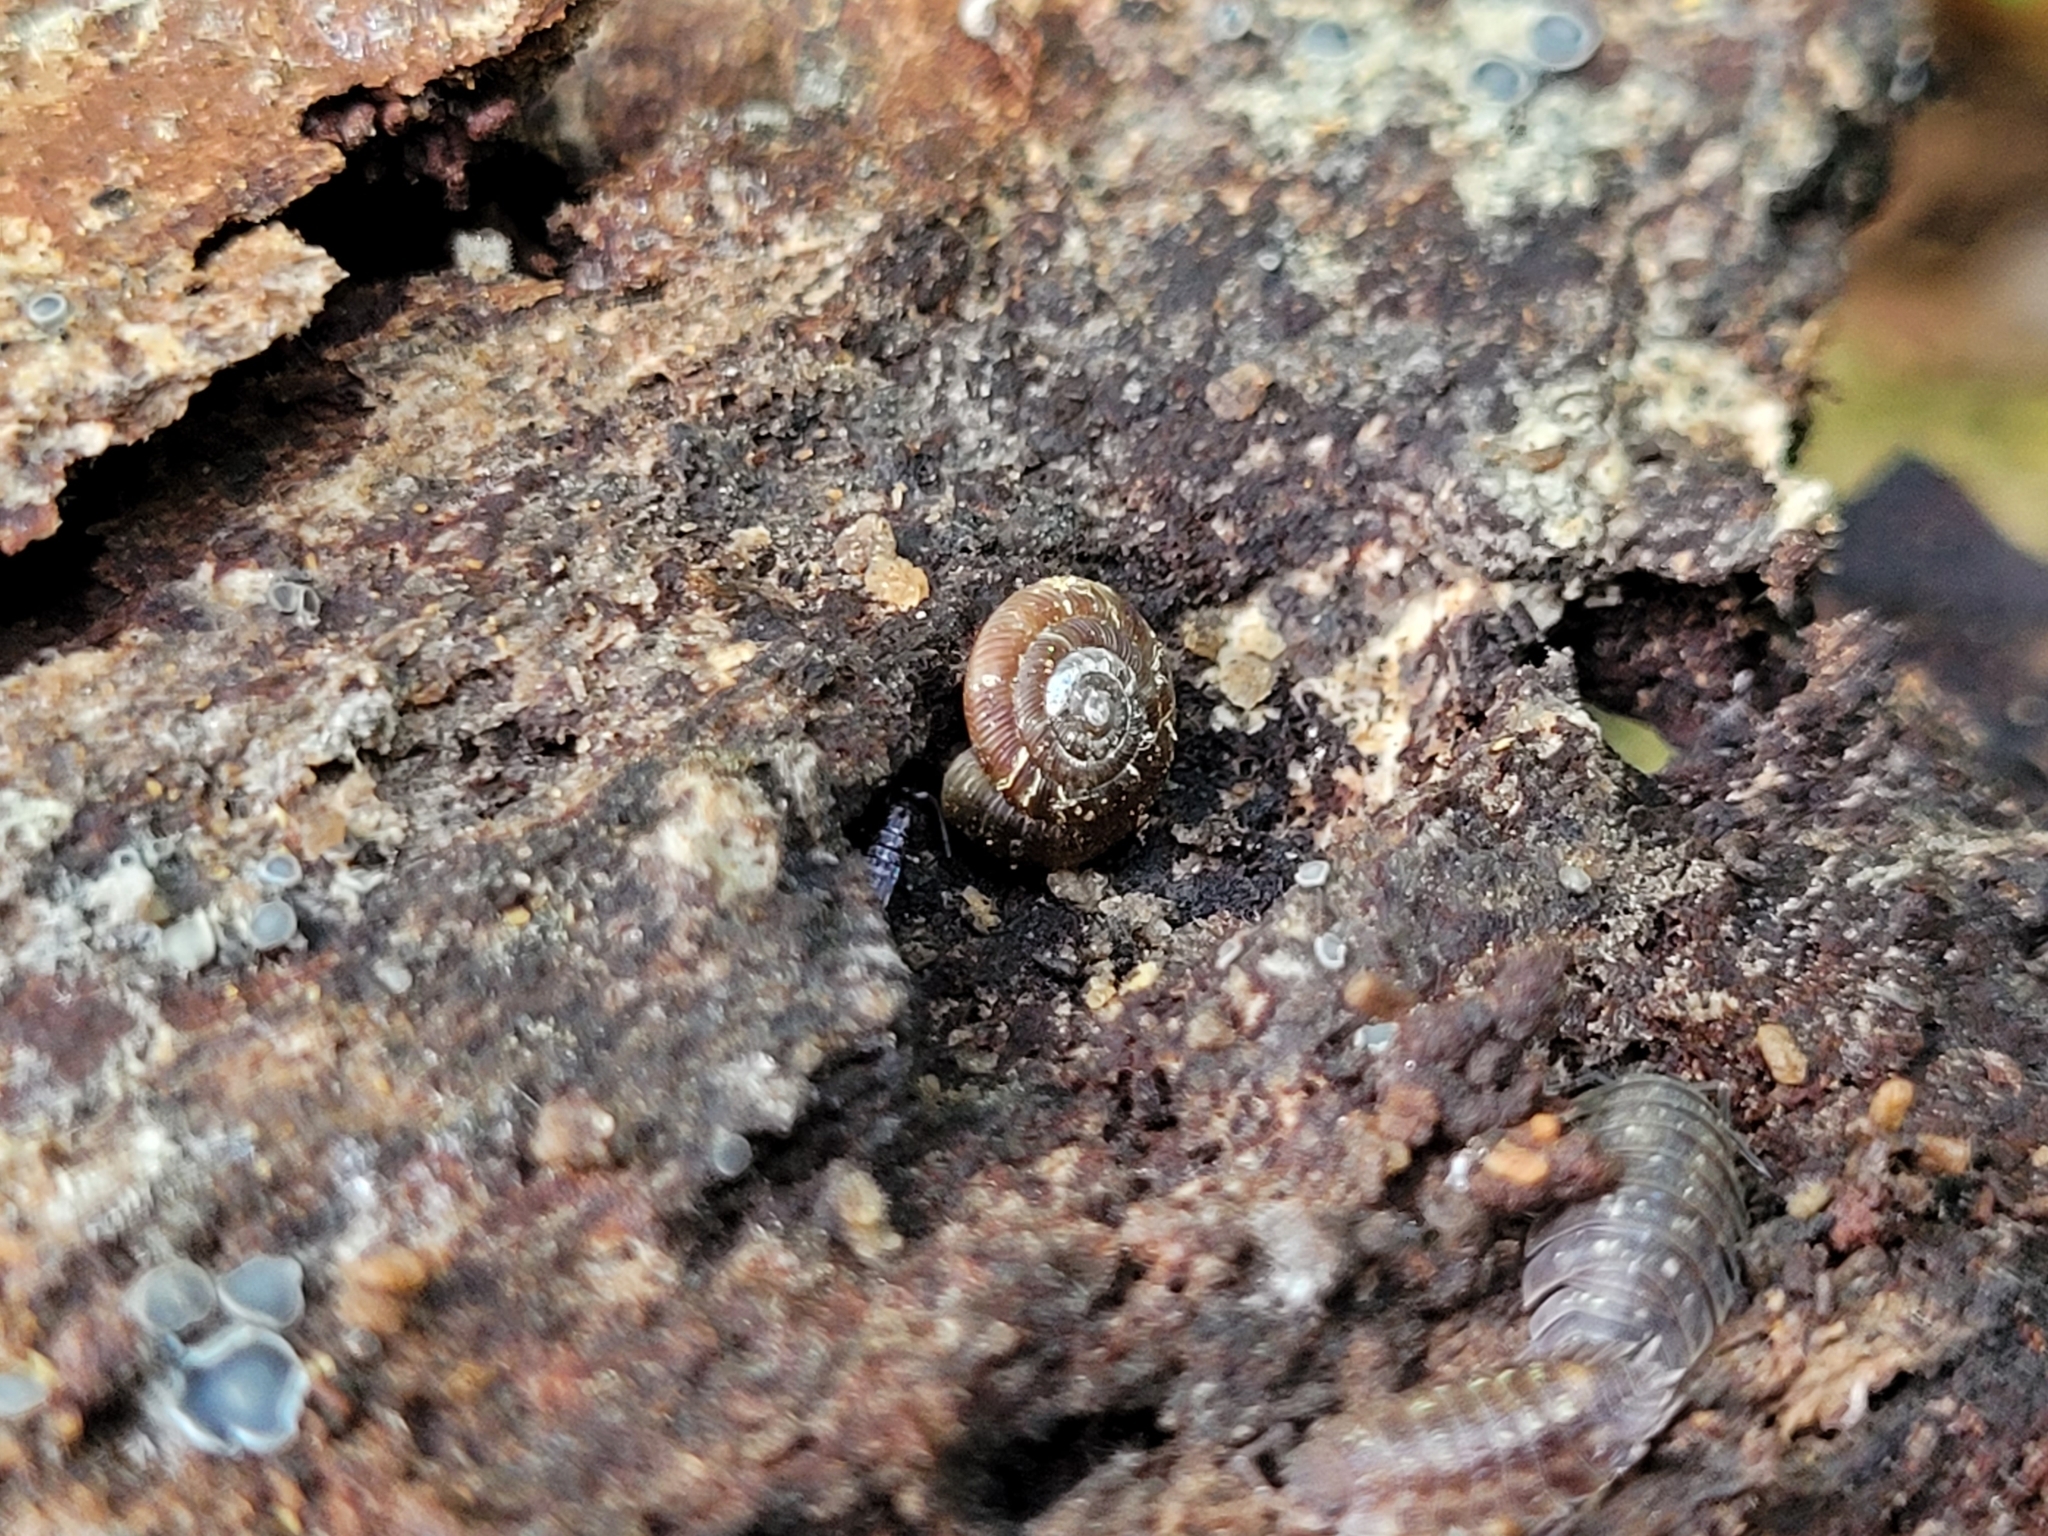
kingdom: Animalia
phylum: Mollusca
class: Gastropoda
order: Stylommatophora
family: Discidae
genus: Discus
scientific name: Discus rotundatus
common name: Rounded snail
